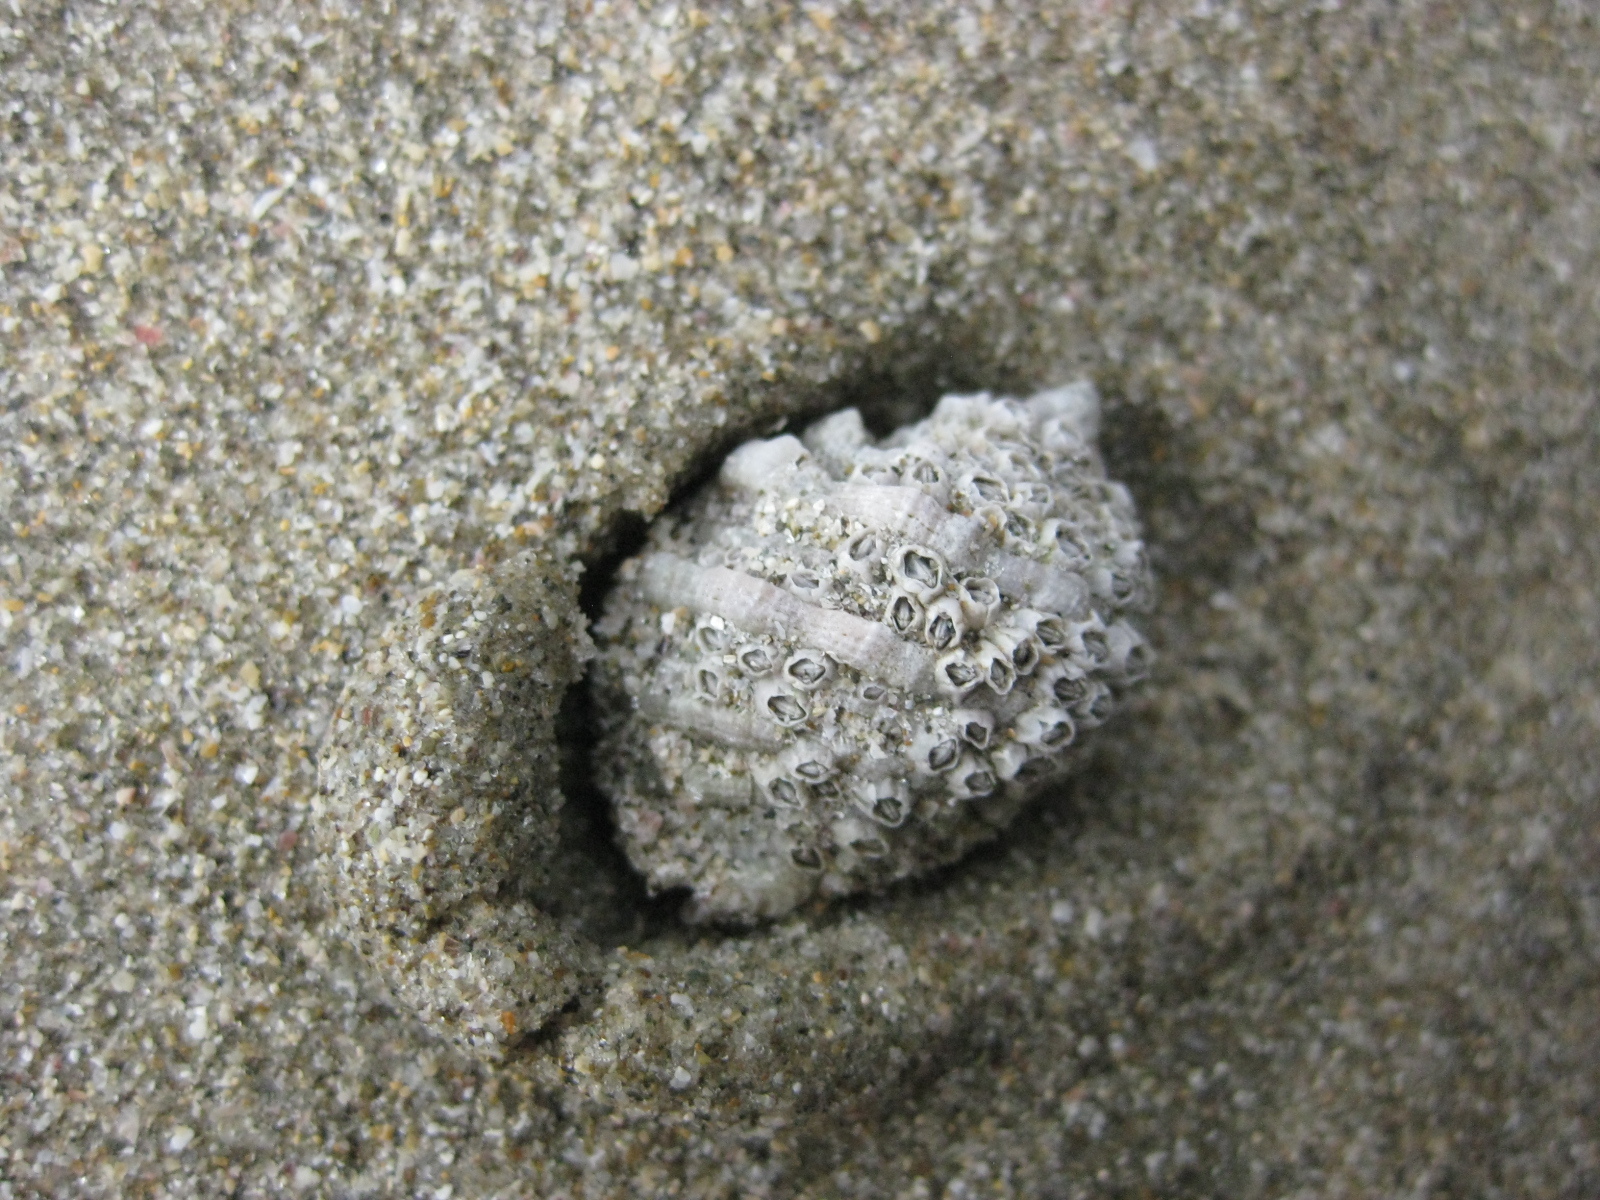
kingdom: Animalia
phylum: Mollusca
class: Gastropoda
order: Neogastropoda
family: Muricidae
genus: Dicathais
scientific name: Dicathais orbita
